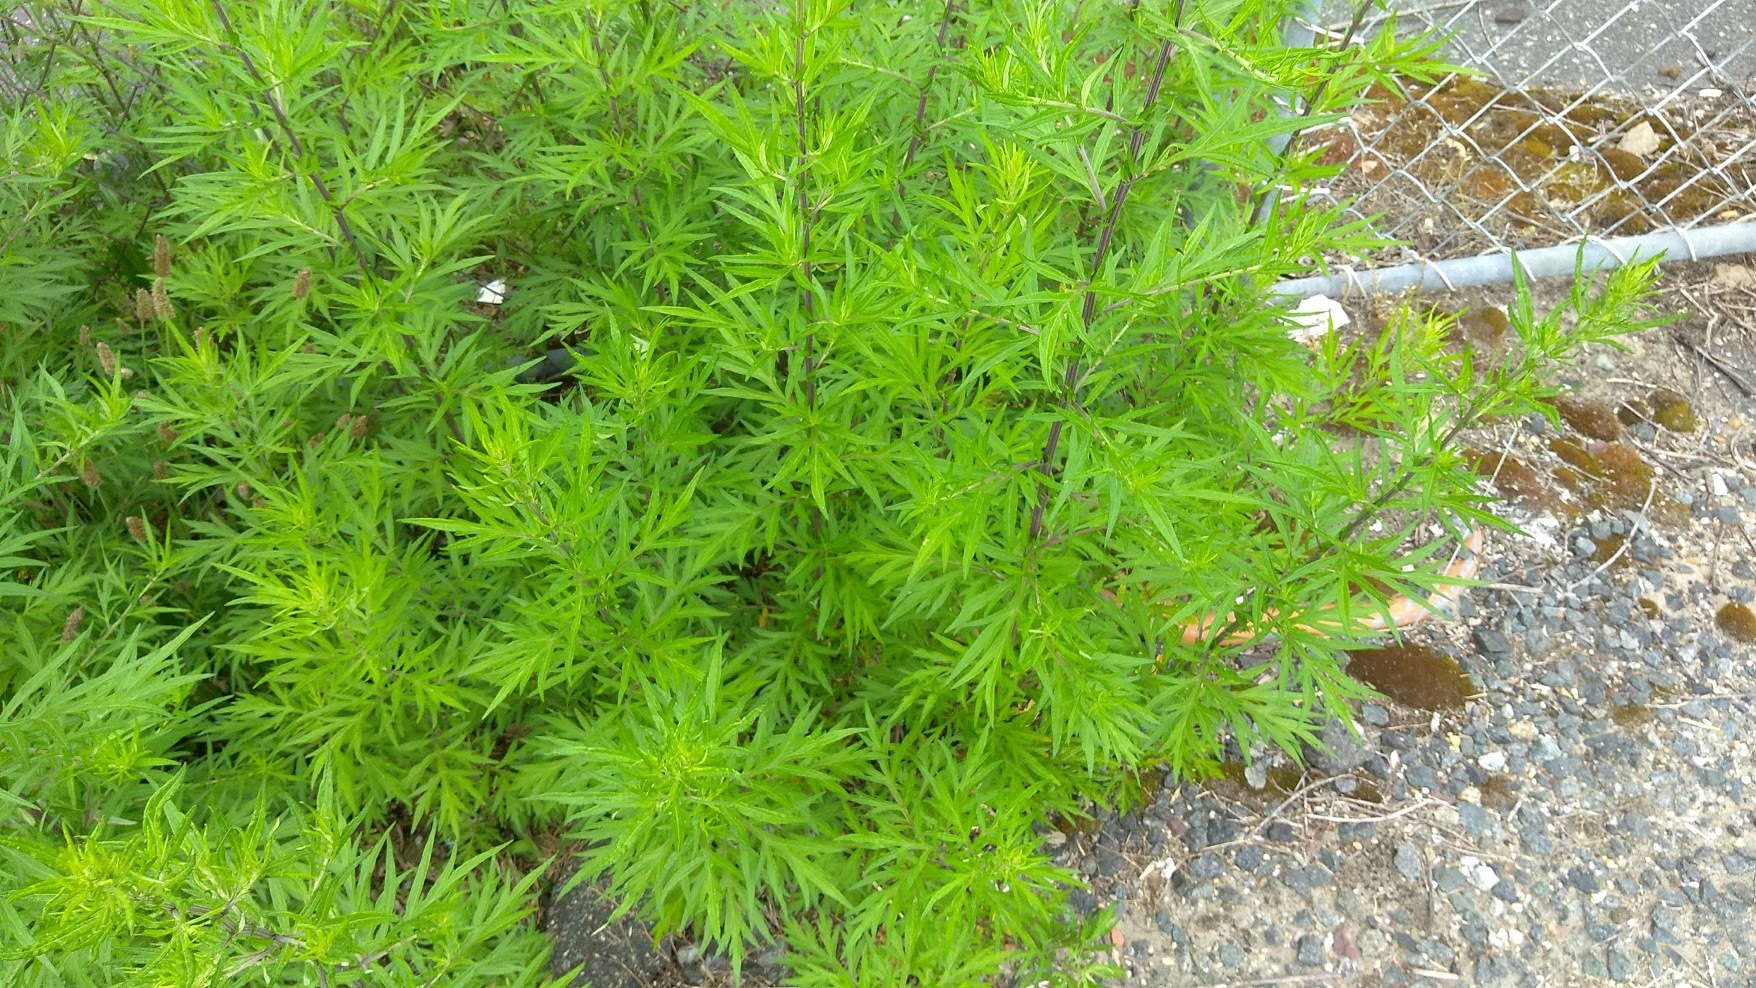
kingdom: Plantae
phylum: Tracheophyta
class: Magnoliopsida
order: Asterales
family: Asteraceae
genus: Artemisia
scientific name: Artemisia vulgaris
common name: Mugwort
